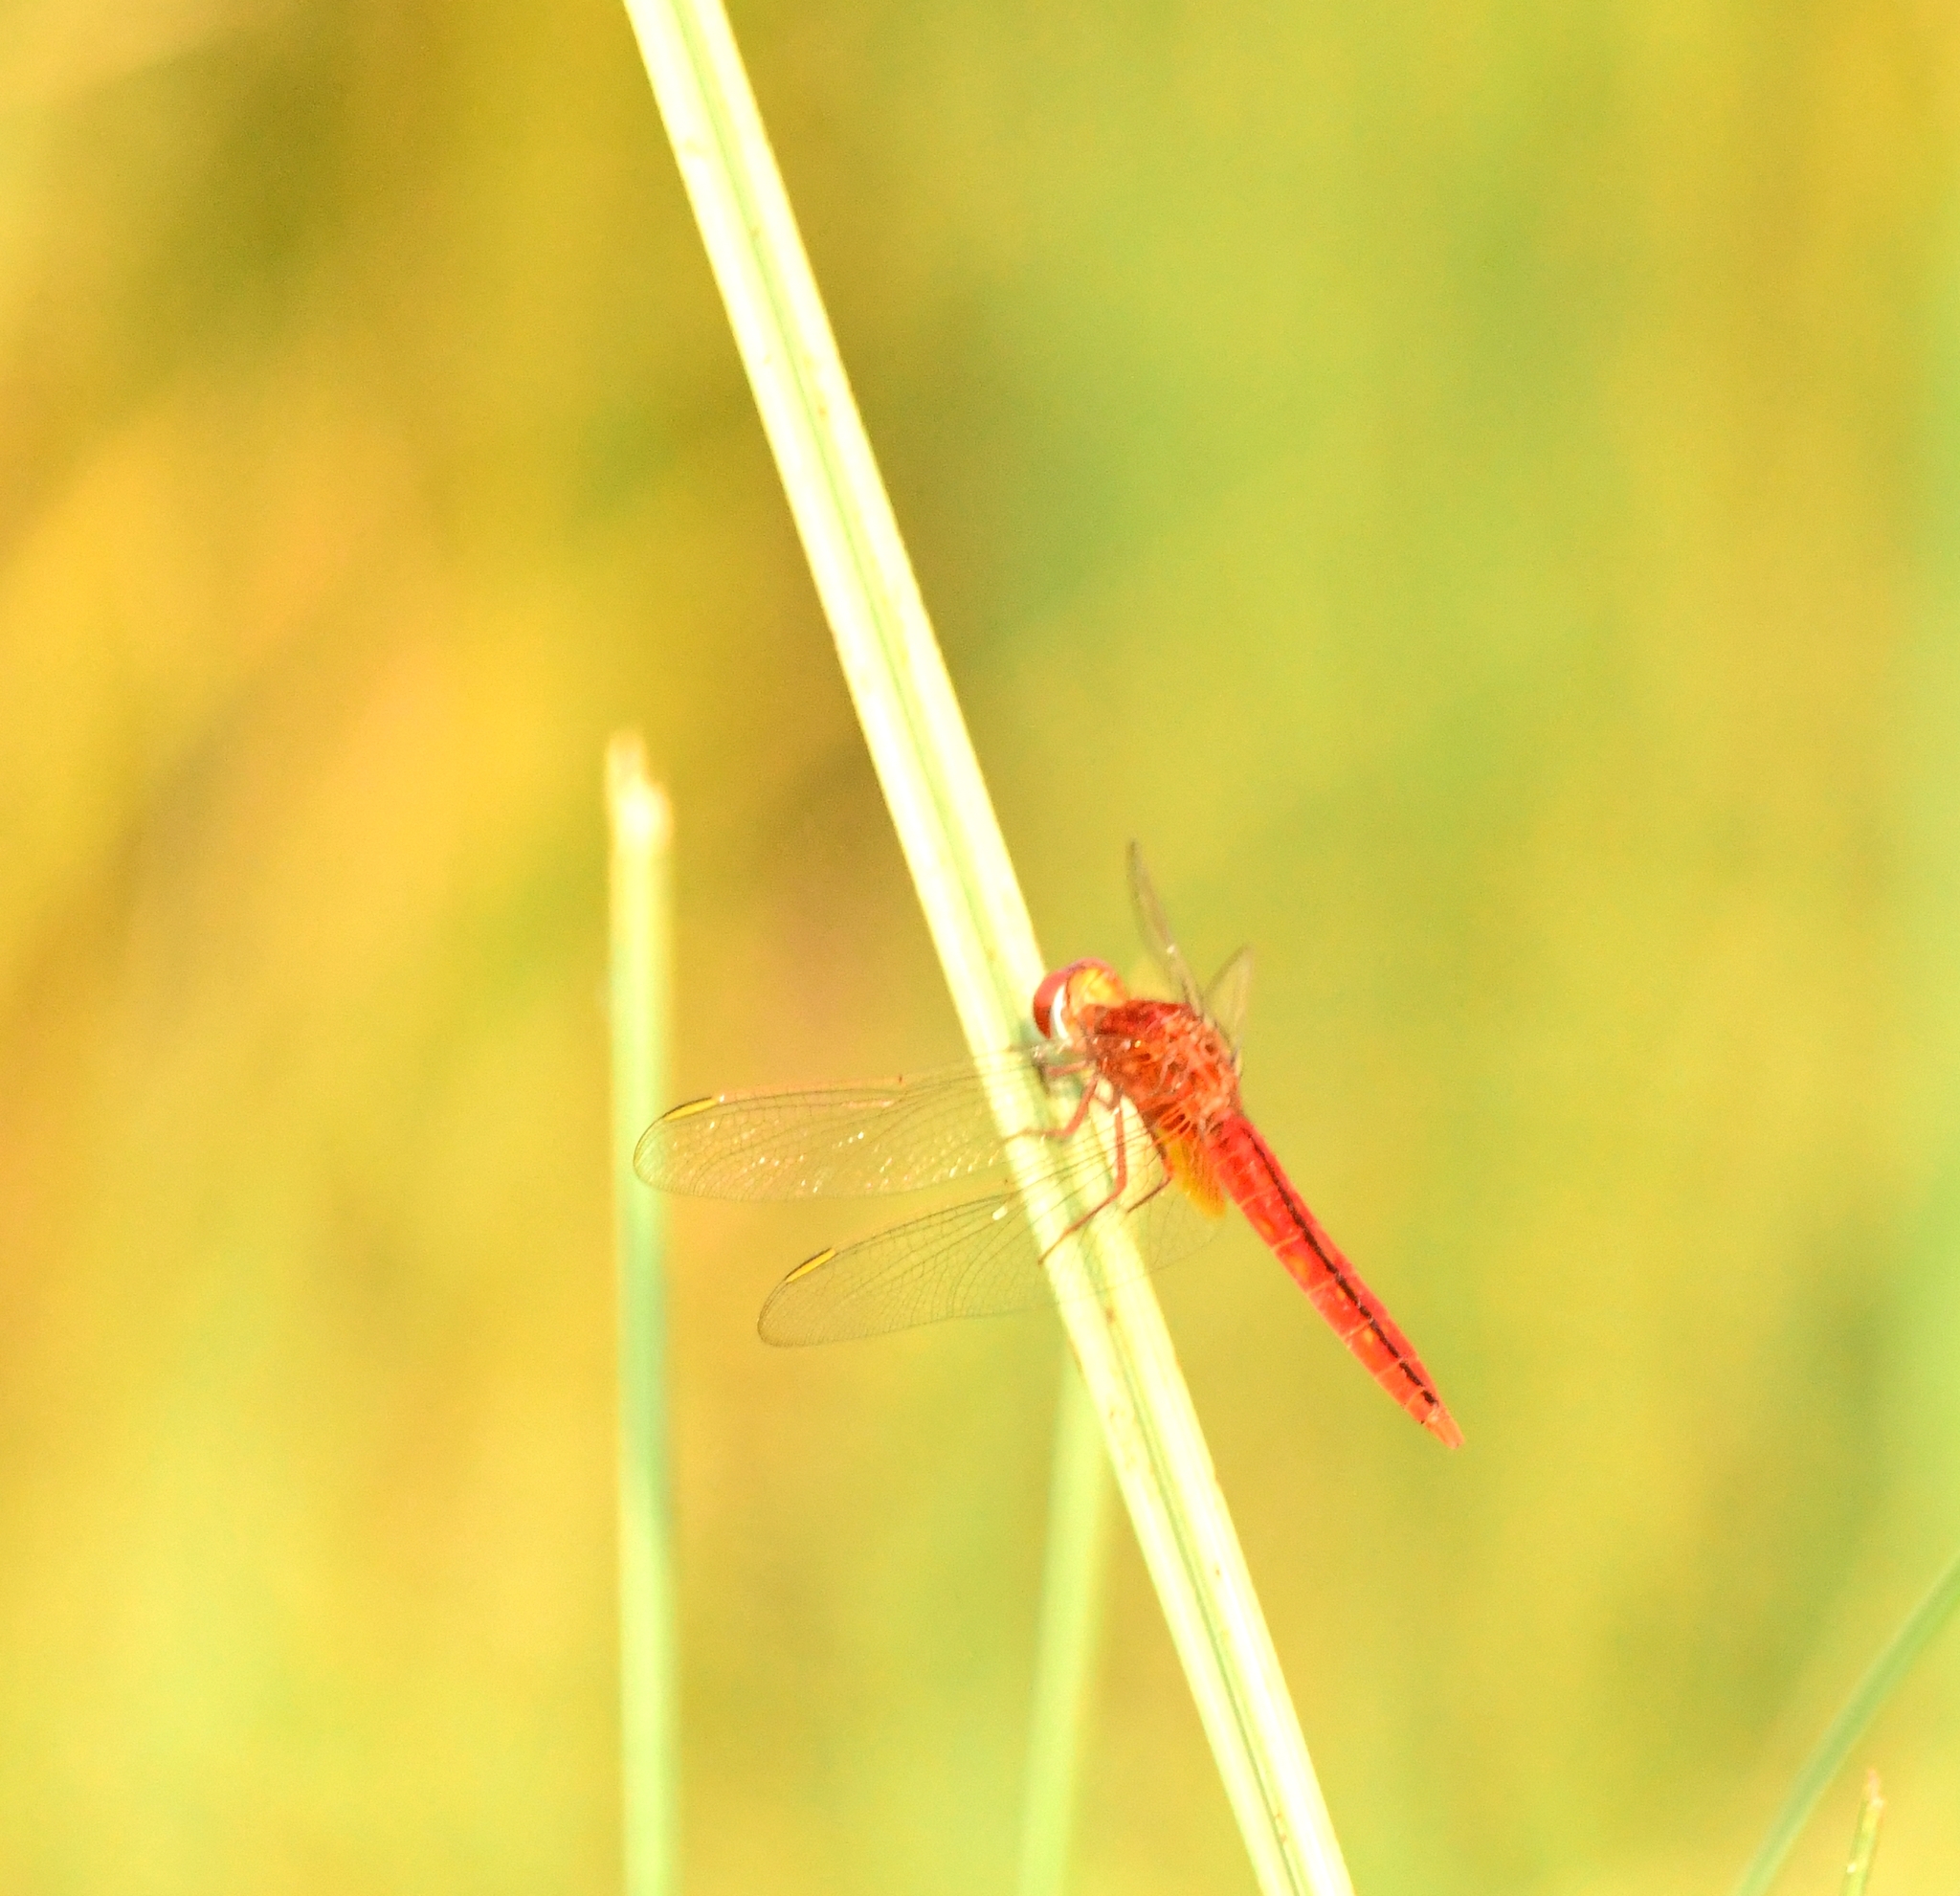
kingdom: Animalia
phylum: Arthropoda
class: Insecta
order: Odonata
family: Libellulidae
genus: Crocothemis
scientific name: Crocothemis servilia
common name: Scarlet skimmer
